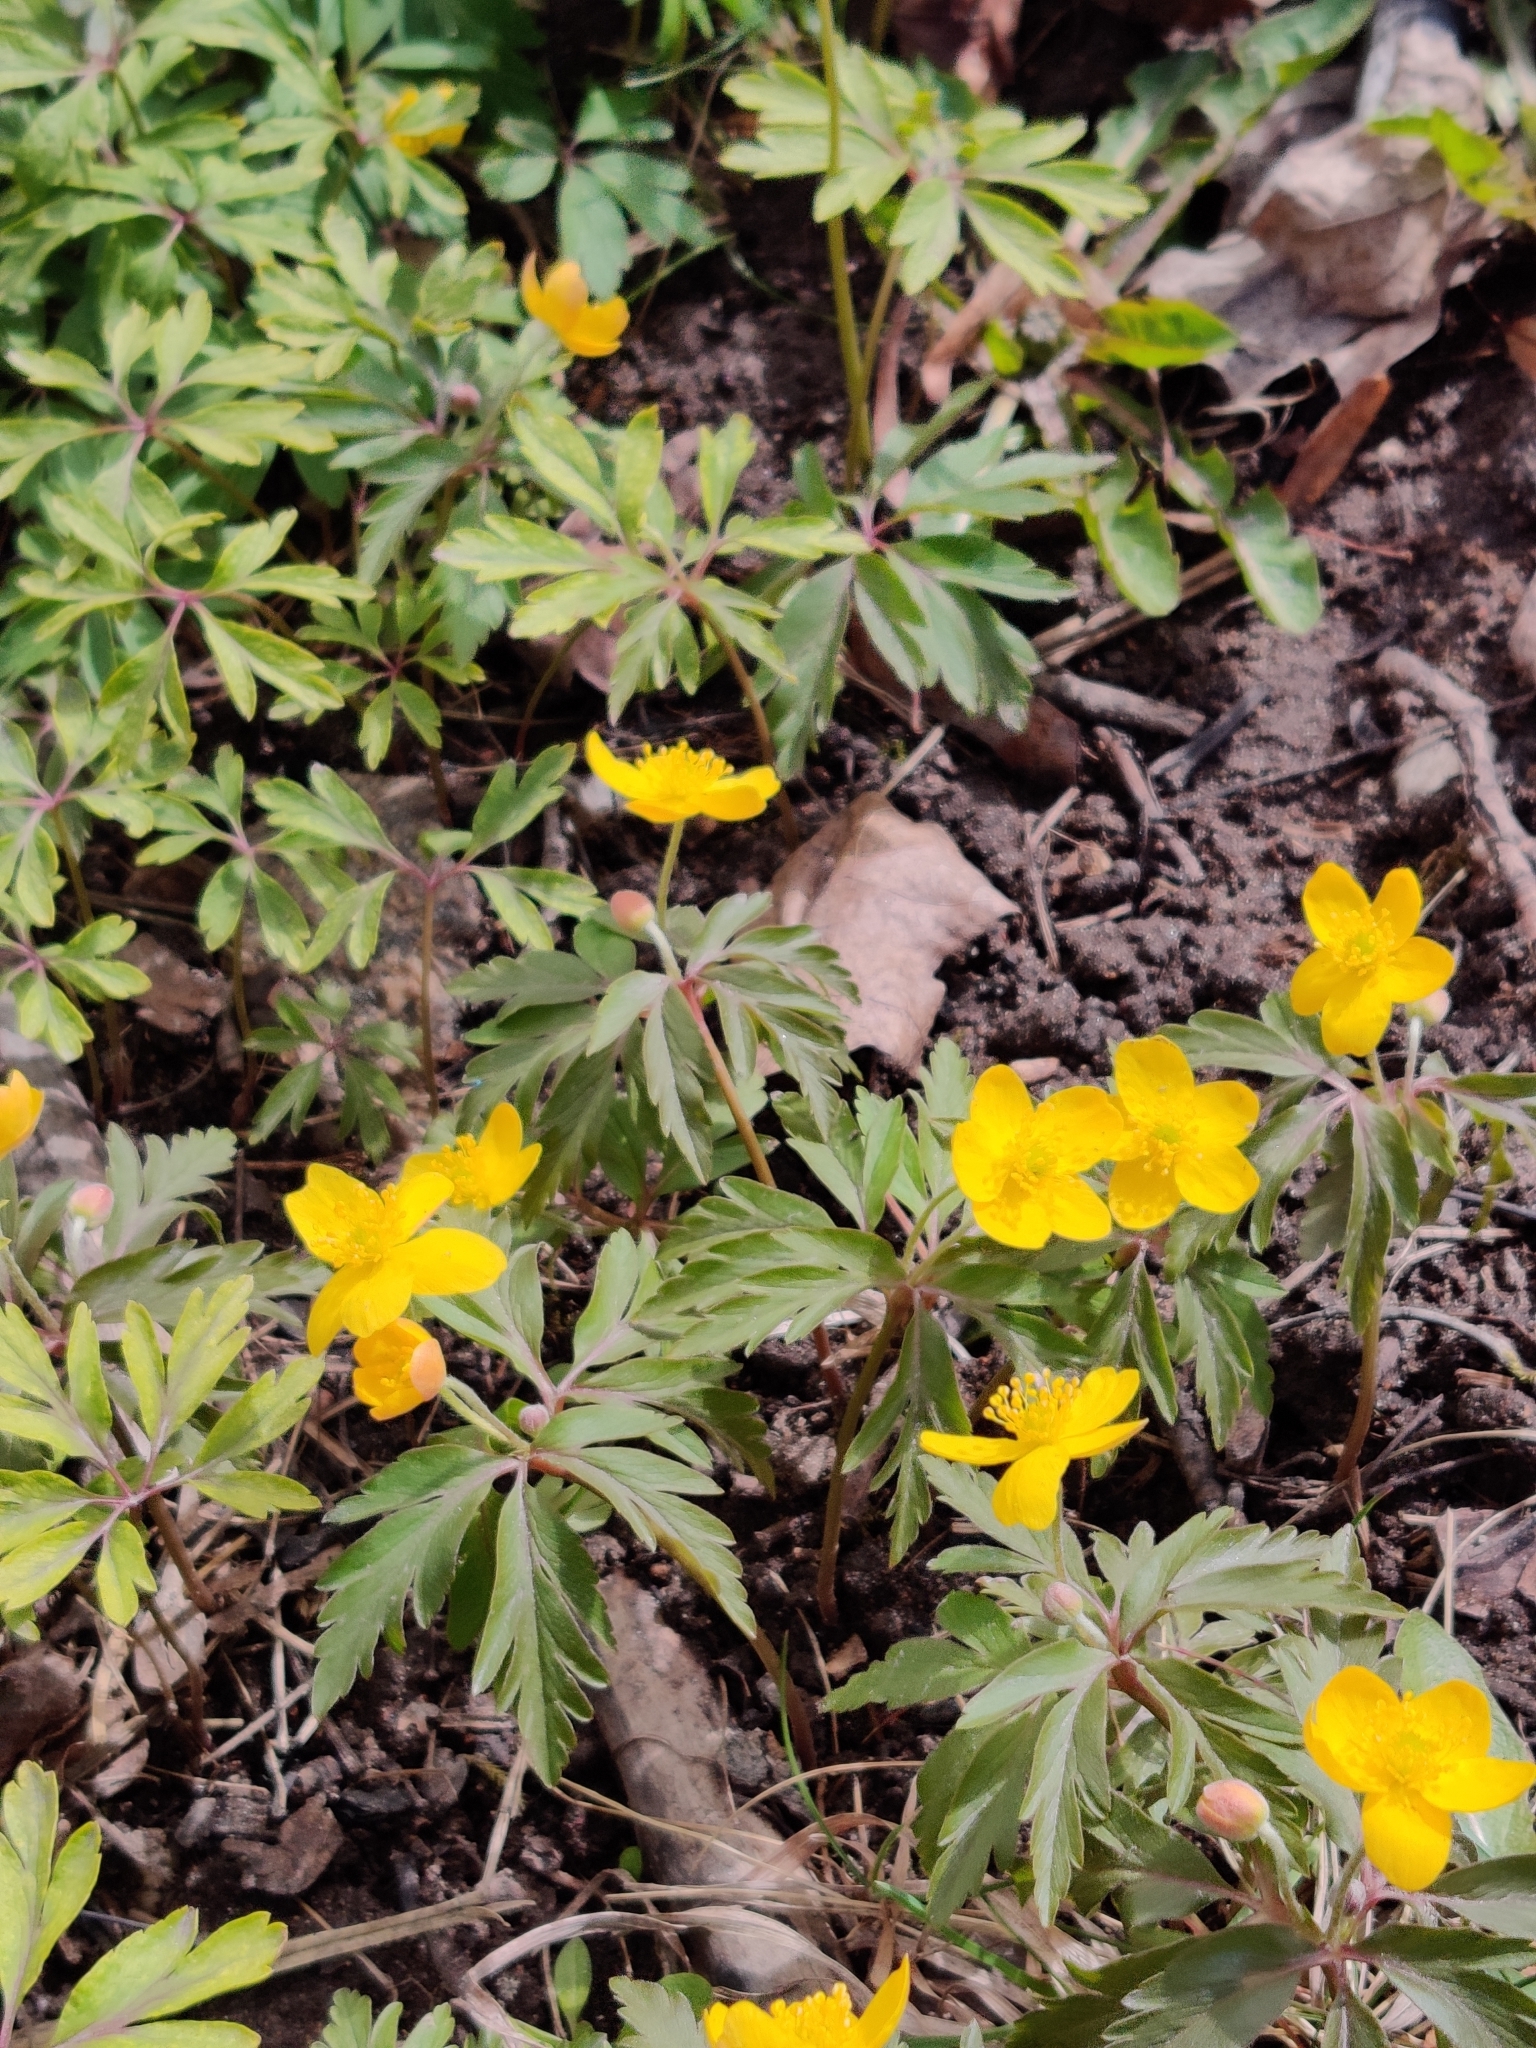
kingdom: Plantae
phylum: Tracheophyta
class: Magnoliopsida
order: Ranunculales
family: Ranunculaceae
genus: Anemone
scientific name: Anemone ranunculoides
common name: Yellow anemone
